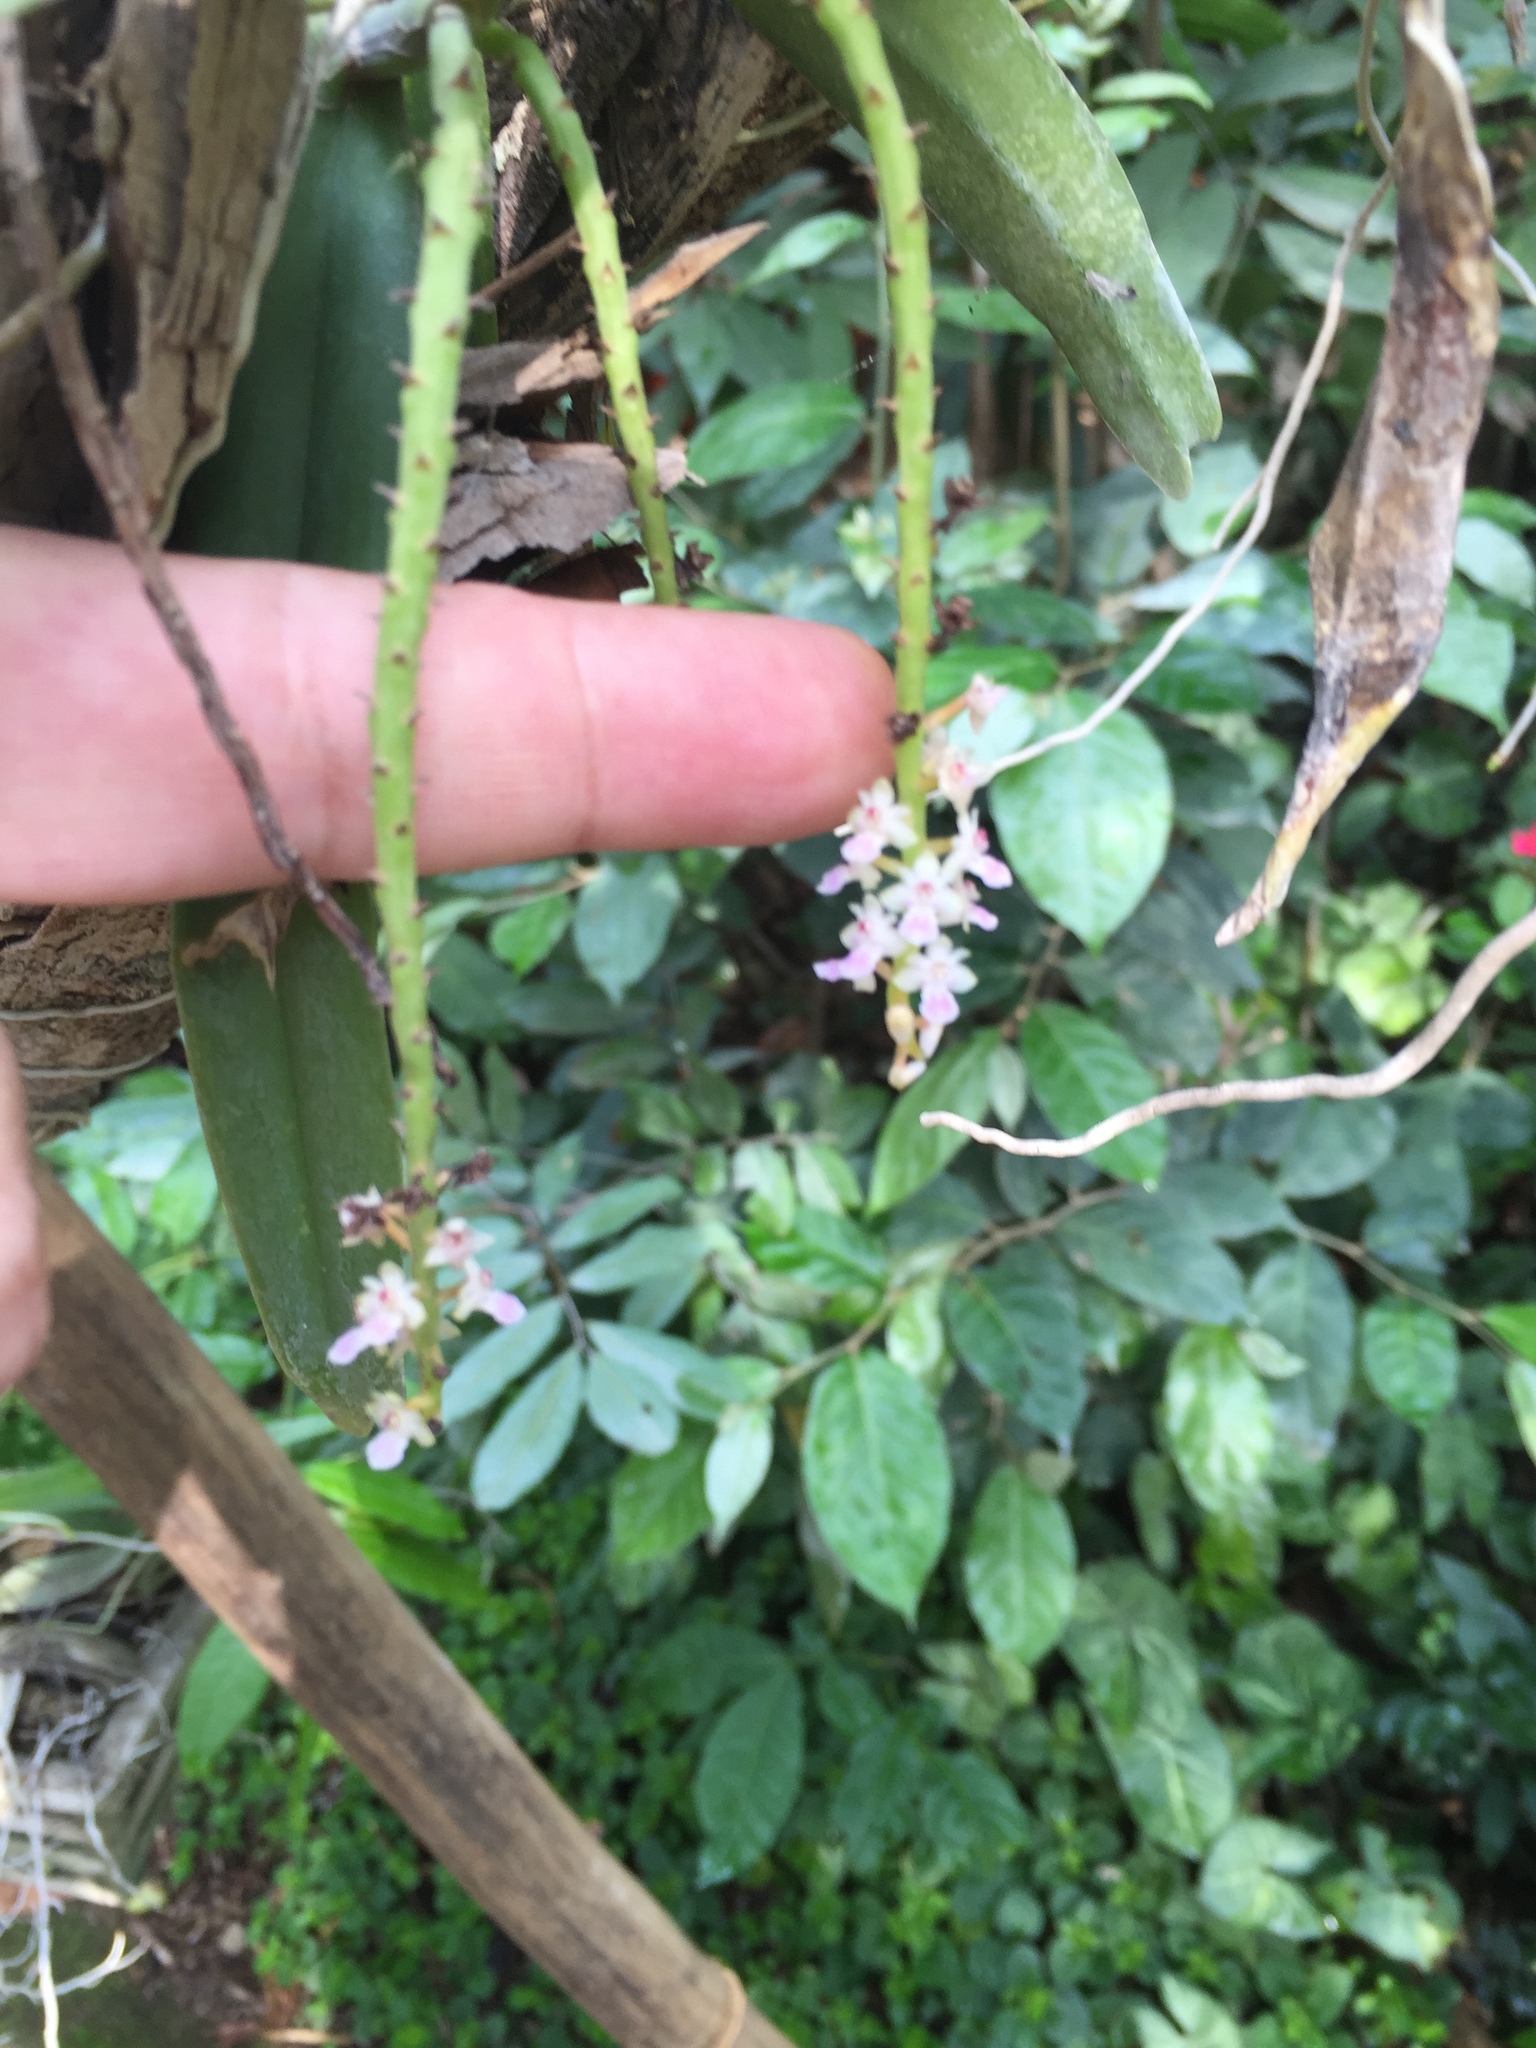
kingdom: Plantae
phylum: Tracheophyta
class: Liliopsida
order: Asparagales
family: Orchidaceae
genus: Smitinandia
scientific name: Smitinandia micrantha
